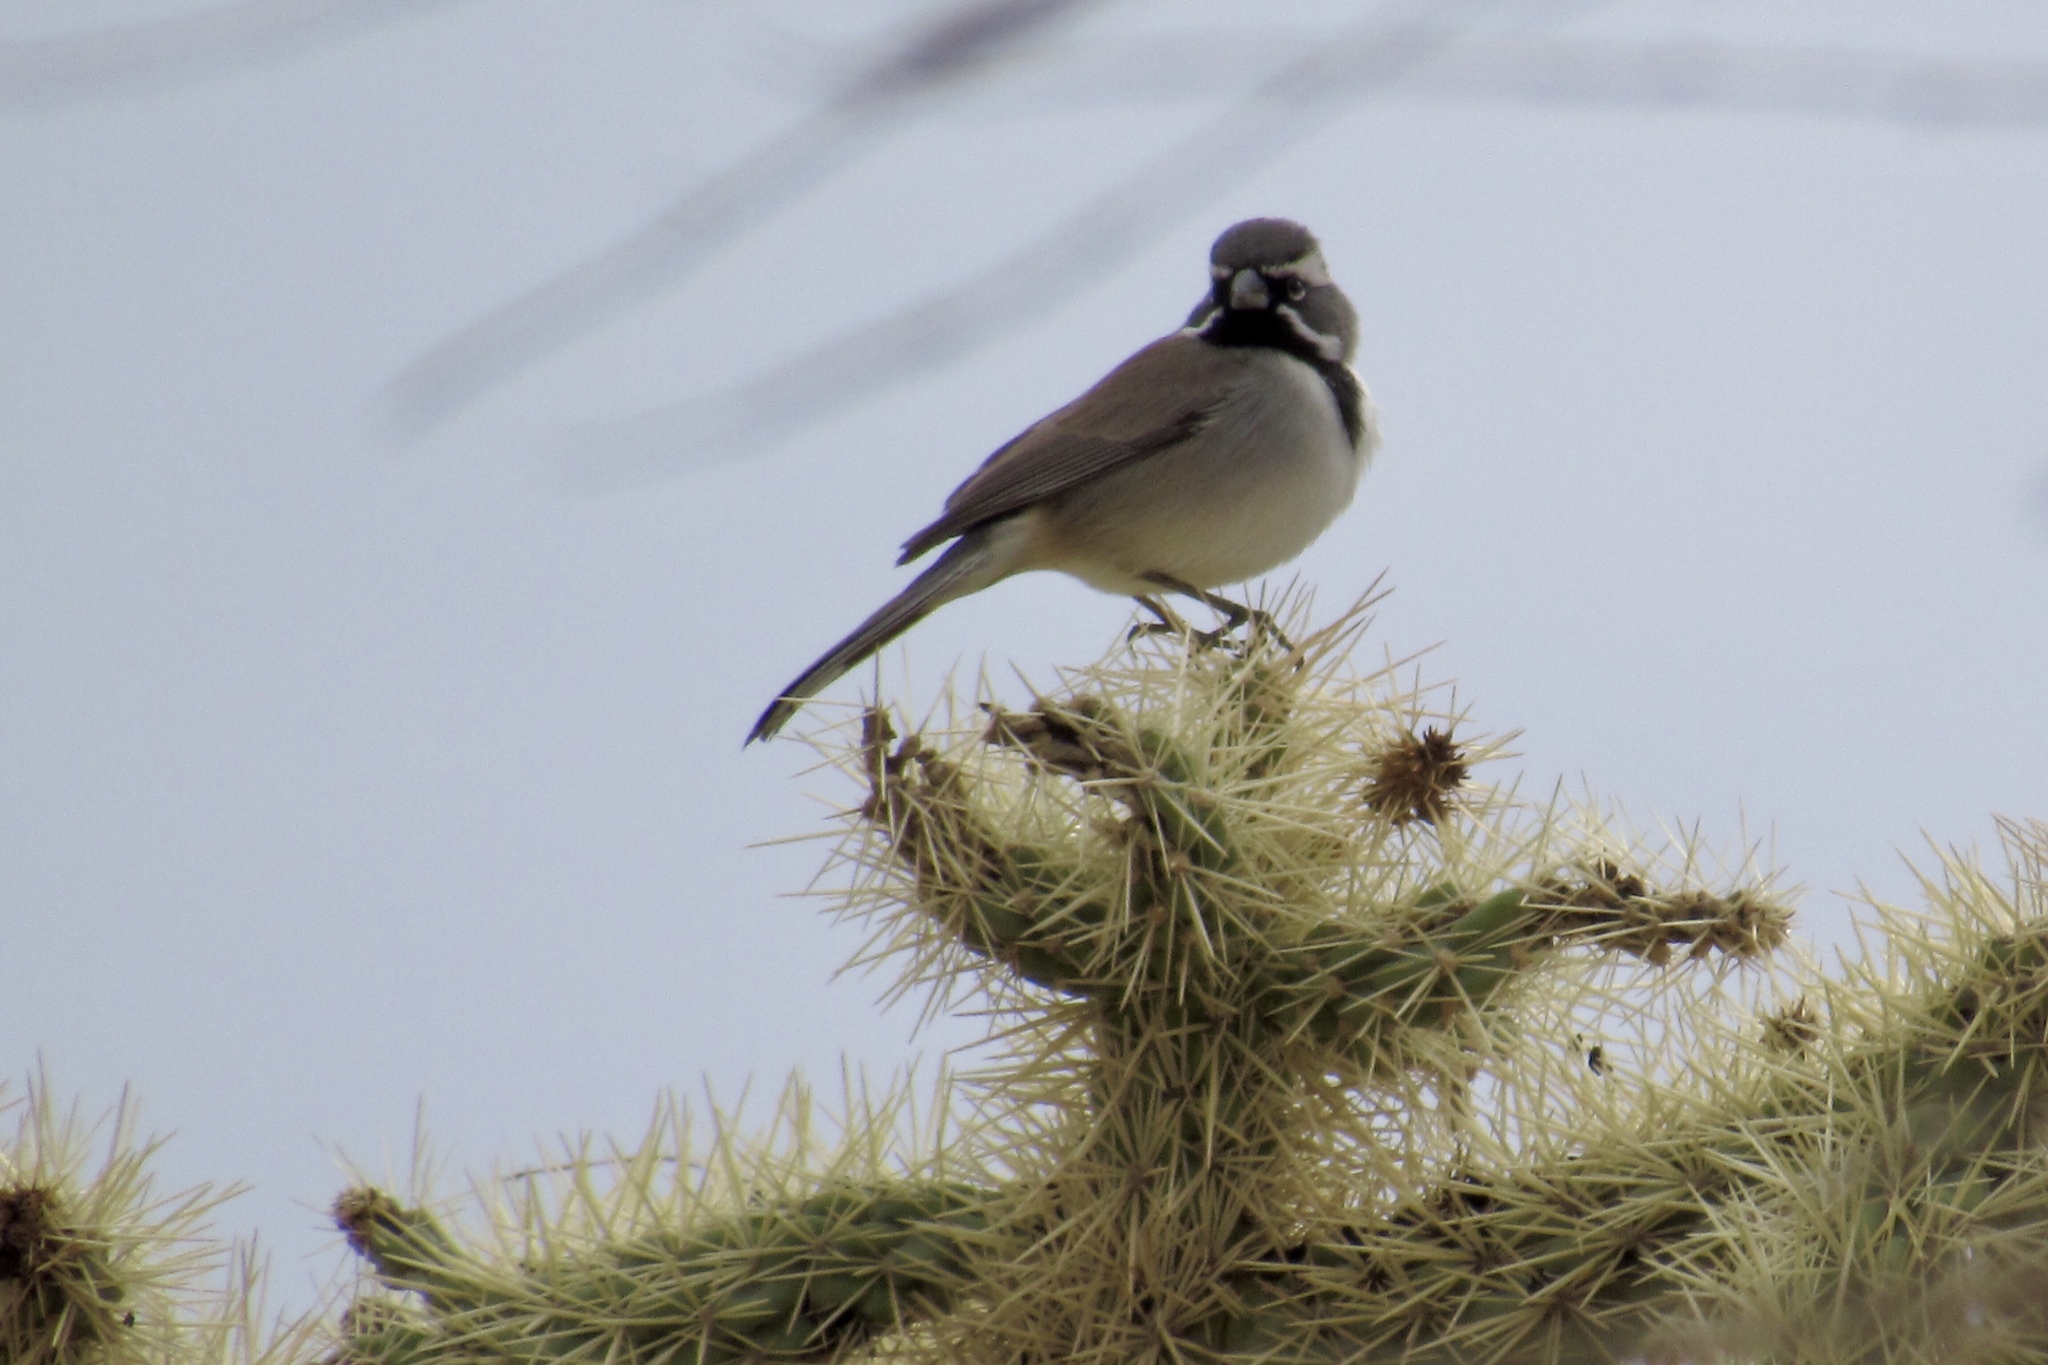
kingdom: Animalia
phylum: Chordata
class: Aves
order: Passeriformes
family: Passerellidae
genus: Amphispiza
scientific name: Amphispiza bilineata
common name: Black-throated sparrow
